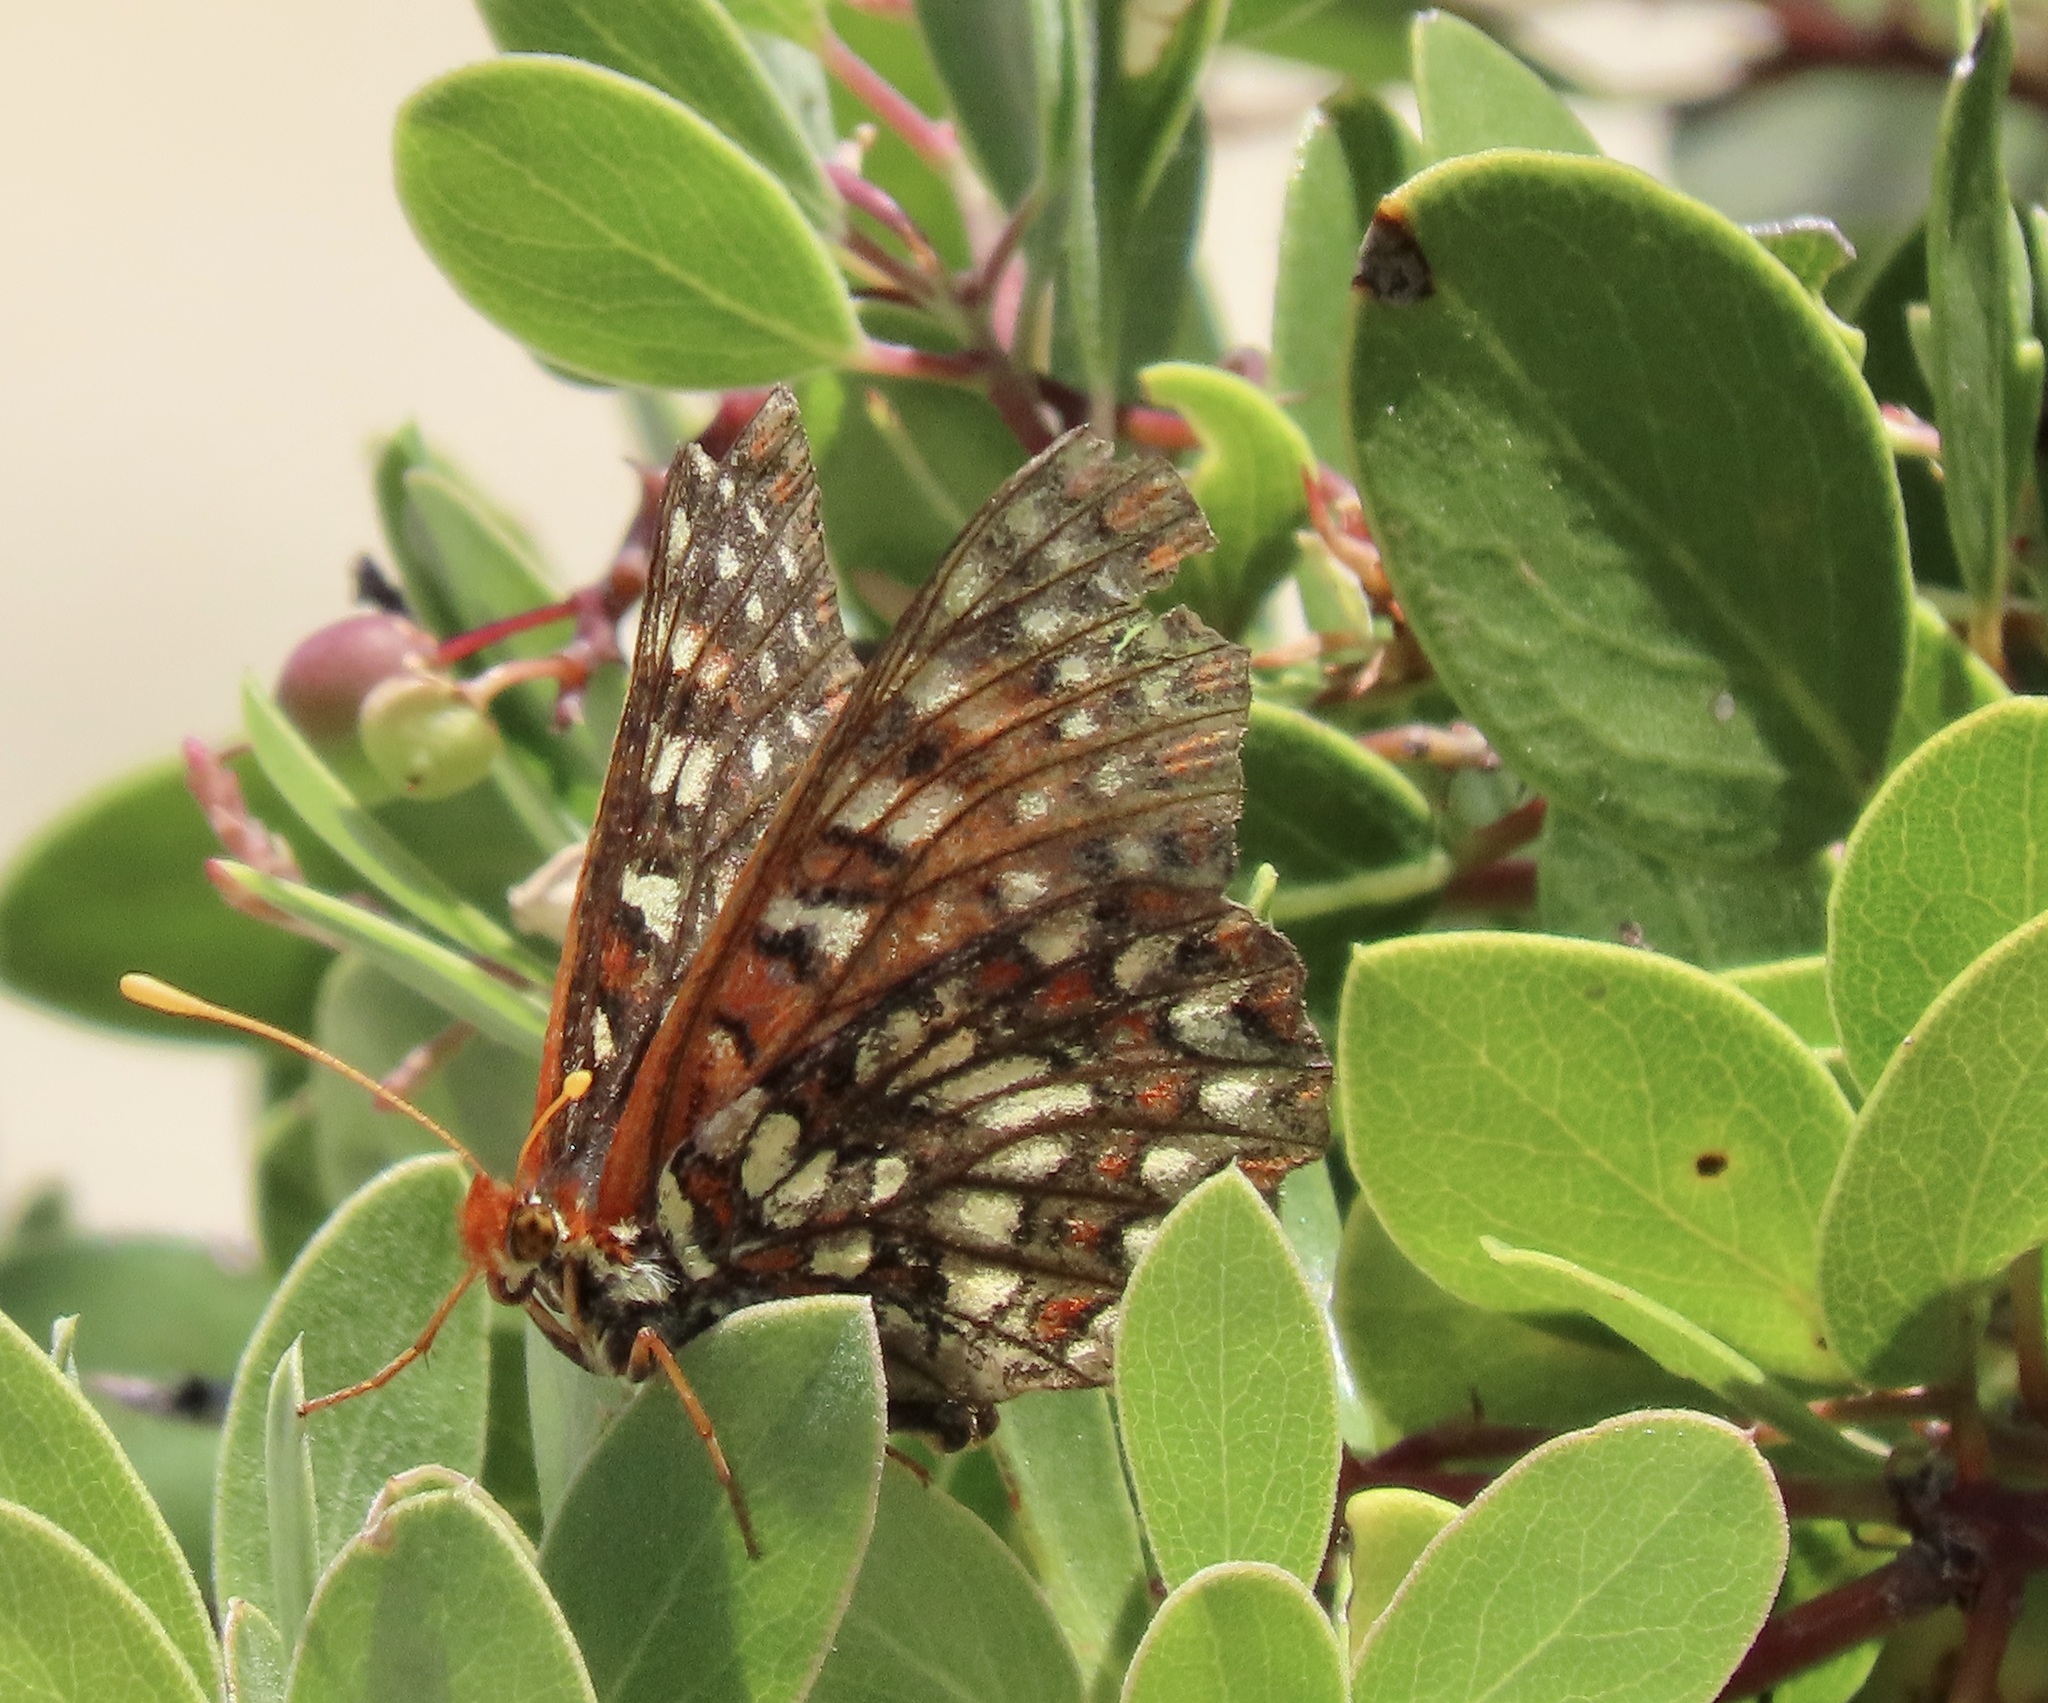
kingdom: Animalia
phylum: Arthropoda
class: Insecta
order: Lepidoptera
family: Nymphalidae
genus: Occidryas
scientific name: Occidryas chalcedona
